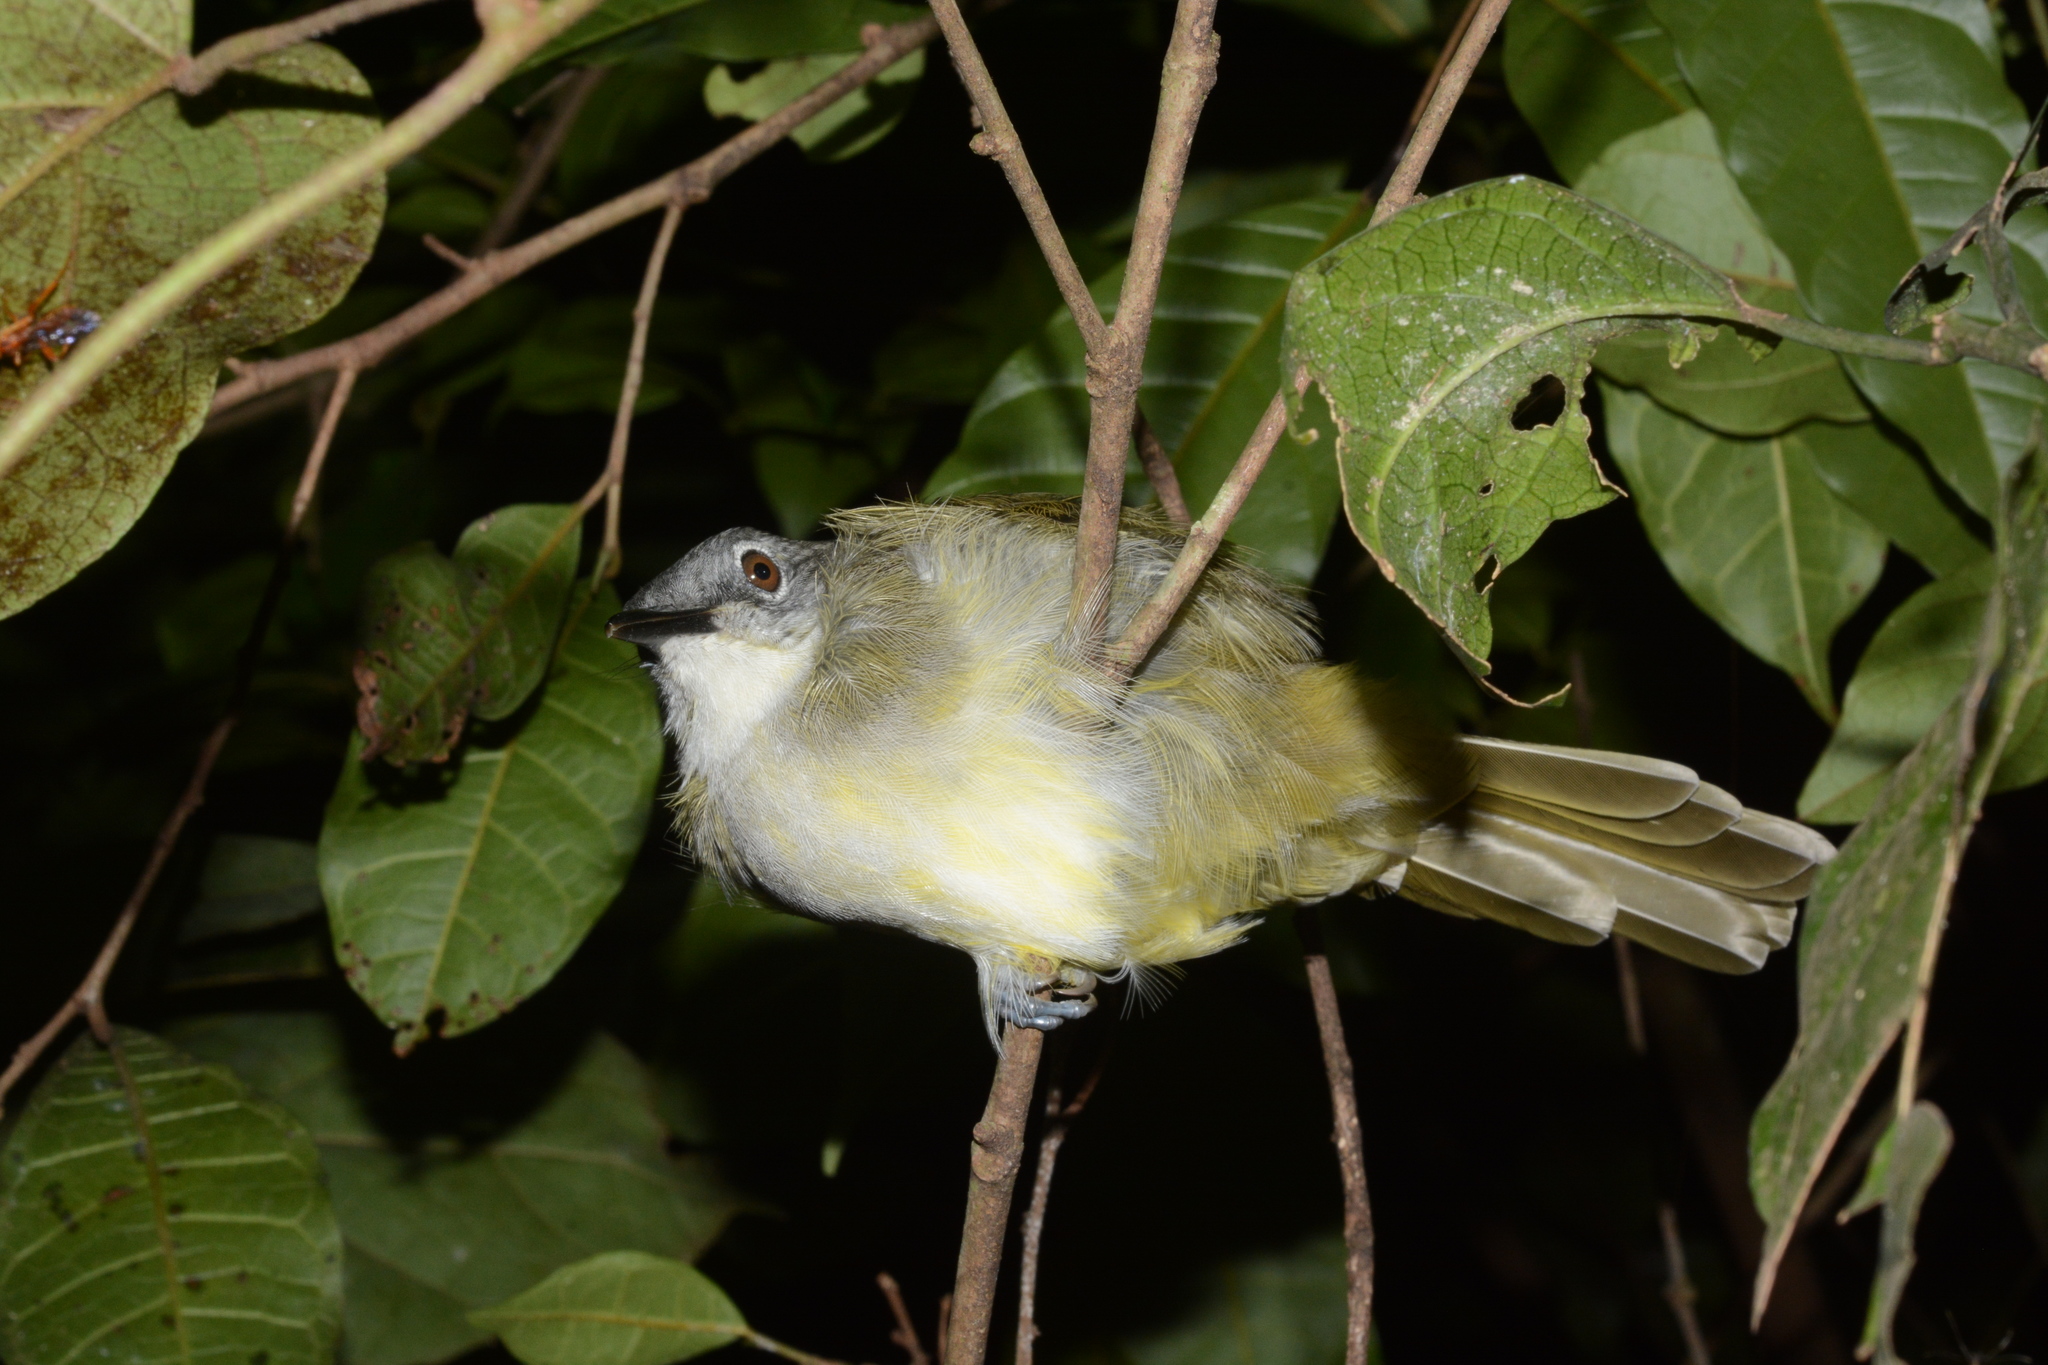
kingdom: Animalia
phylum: Chordata
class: Aves
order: Passeriformes
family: Pycnonotidae
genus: Phyllastrephus
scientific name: Phyllastrephus flavostriatus
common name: Yellow-streaked greenbul
